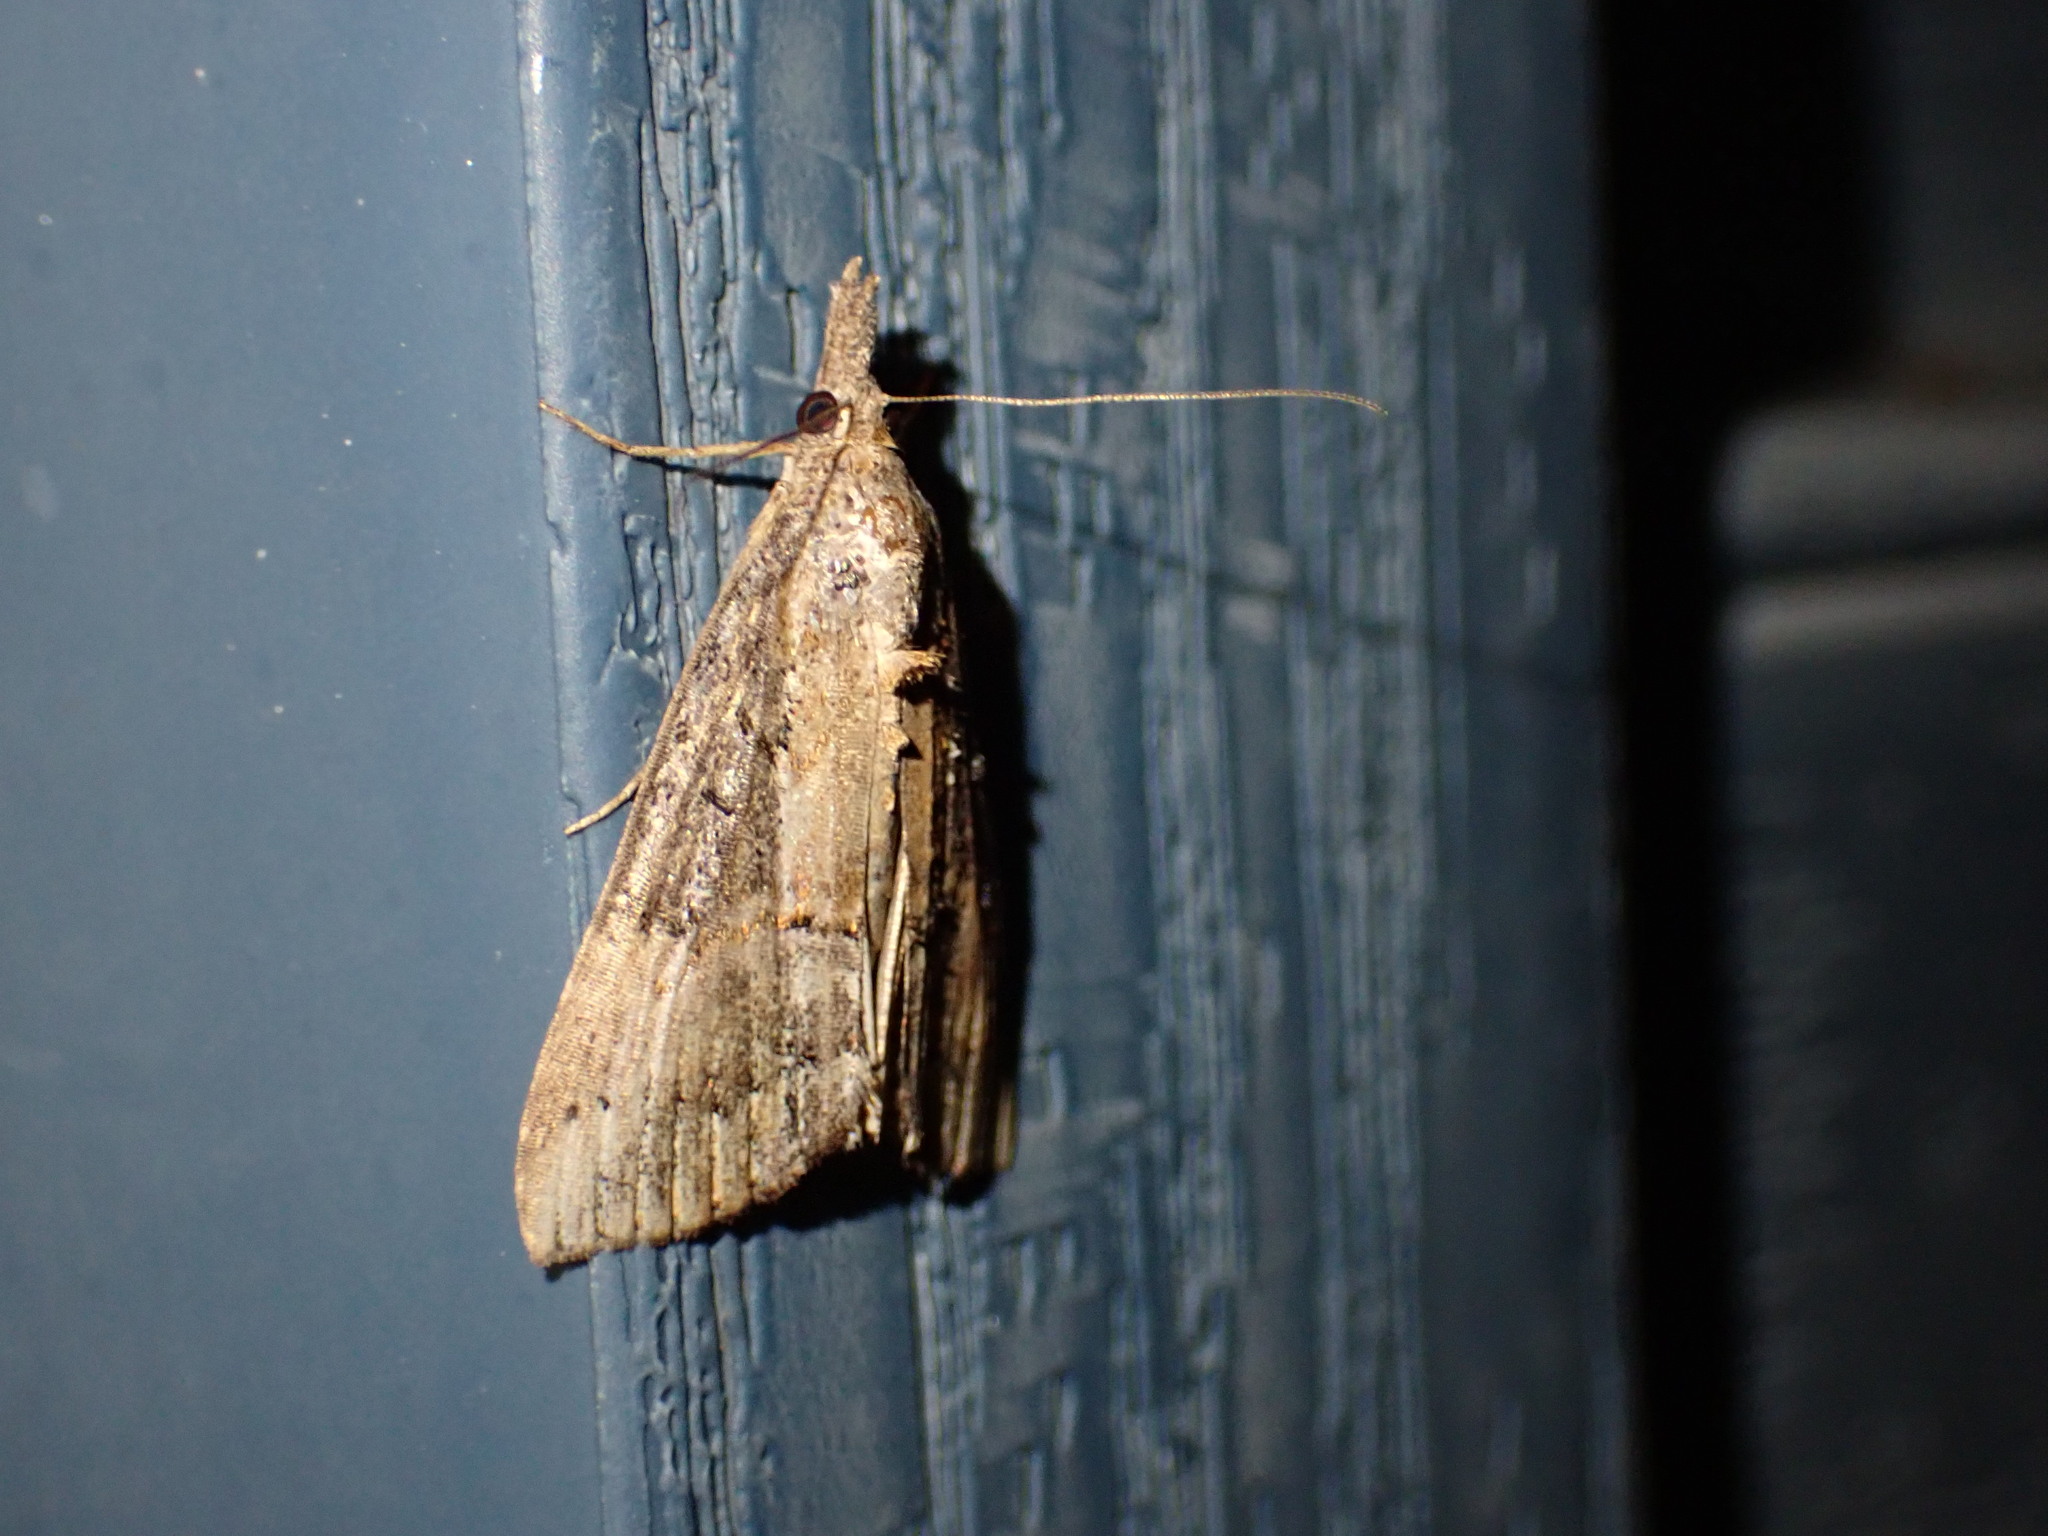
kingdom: Animalia
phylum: Arthropoda
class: Insecta
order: Lepidoptera
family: Erebidae
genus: Hypena
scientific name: Hypena scabra
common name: Green cloverworm
